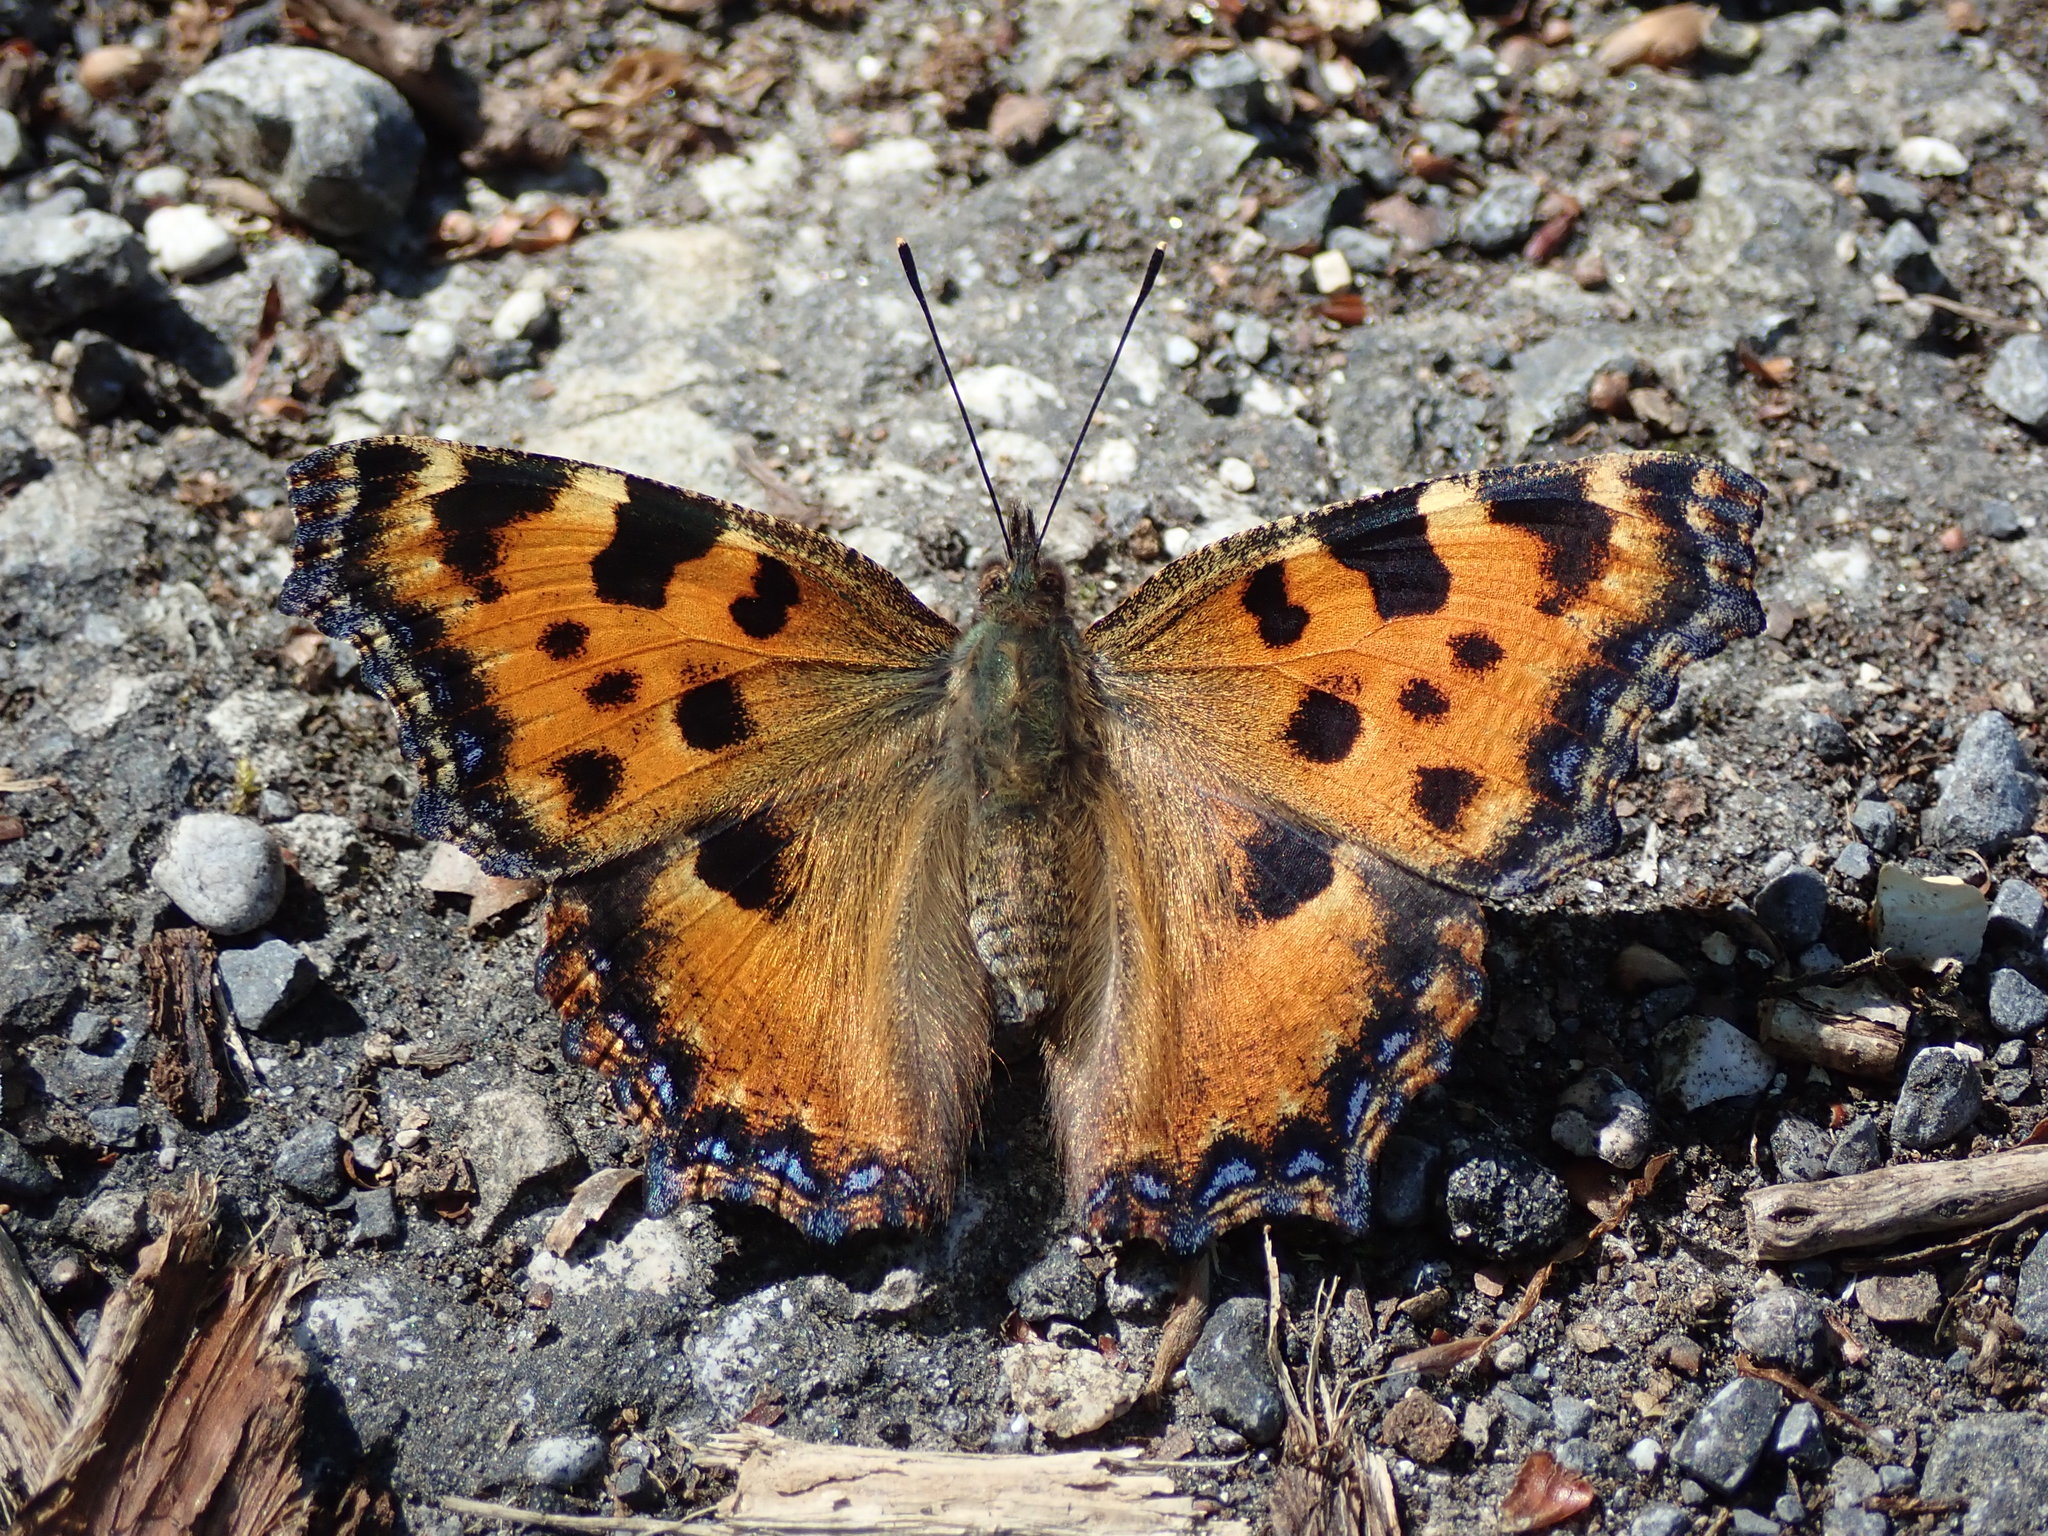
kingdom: Animalia
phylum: Arthropoda
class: Insecta
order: Lepidoptera
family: Nymphalidae
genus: Nymphalis
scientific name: Nymphalis polychloros
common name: Large tortoiseshell
